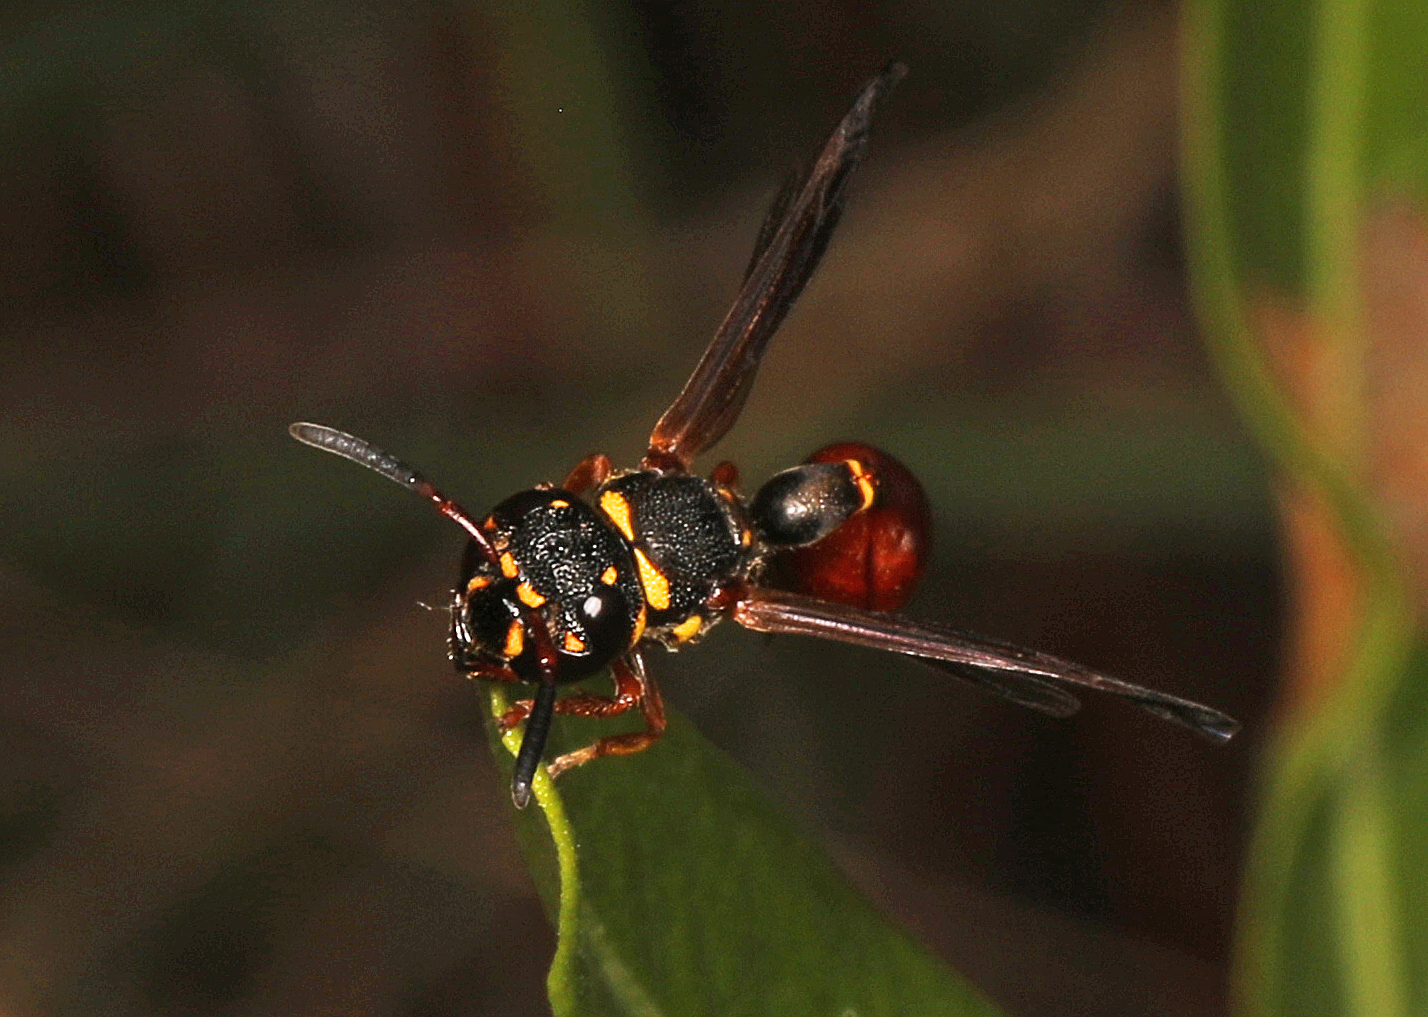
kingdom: Animalia
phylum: Arthropoda
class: Insecta
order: Hymenoptera
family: Eumenidae
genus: Zethus
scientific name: Zethus slossonae
